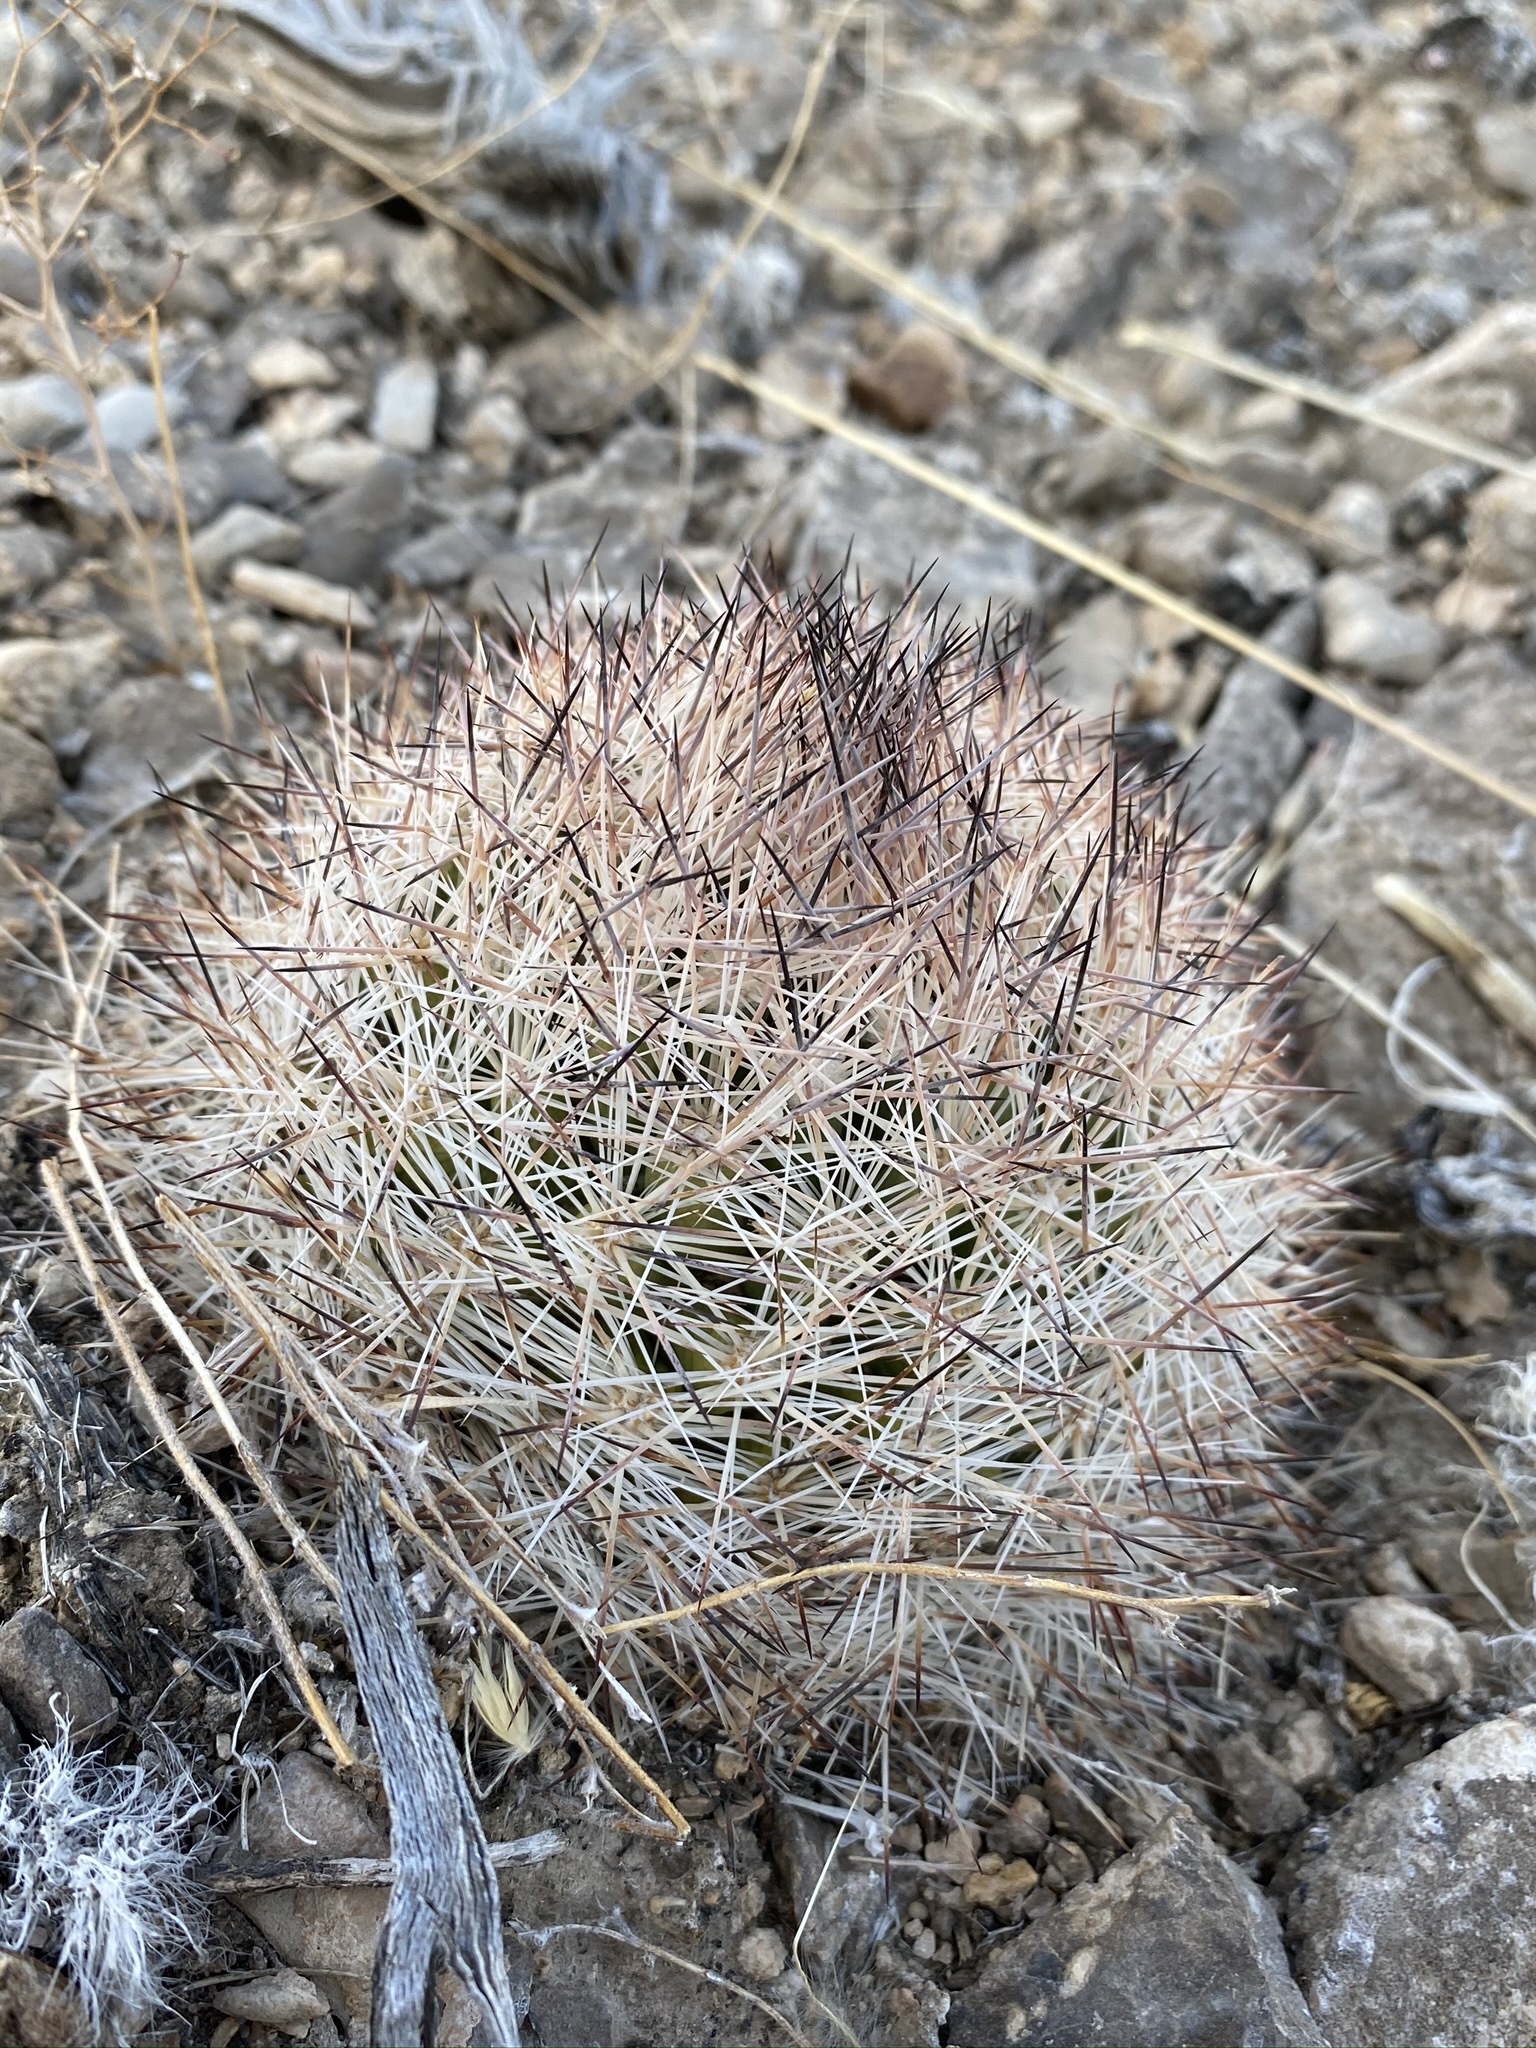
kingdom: Plantae
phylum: Tracheophyta
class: Magnoliopsida
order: Caryophyllales
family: Cactaceae
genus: Pelecyphora
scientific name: Pelecyphora vivipara
